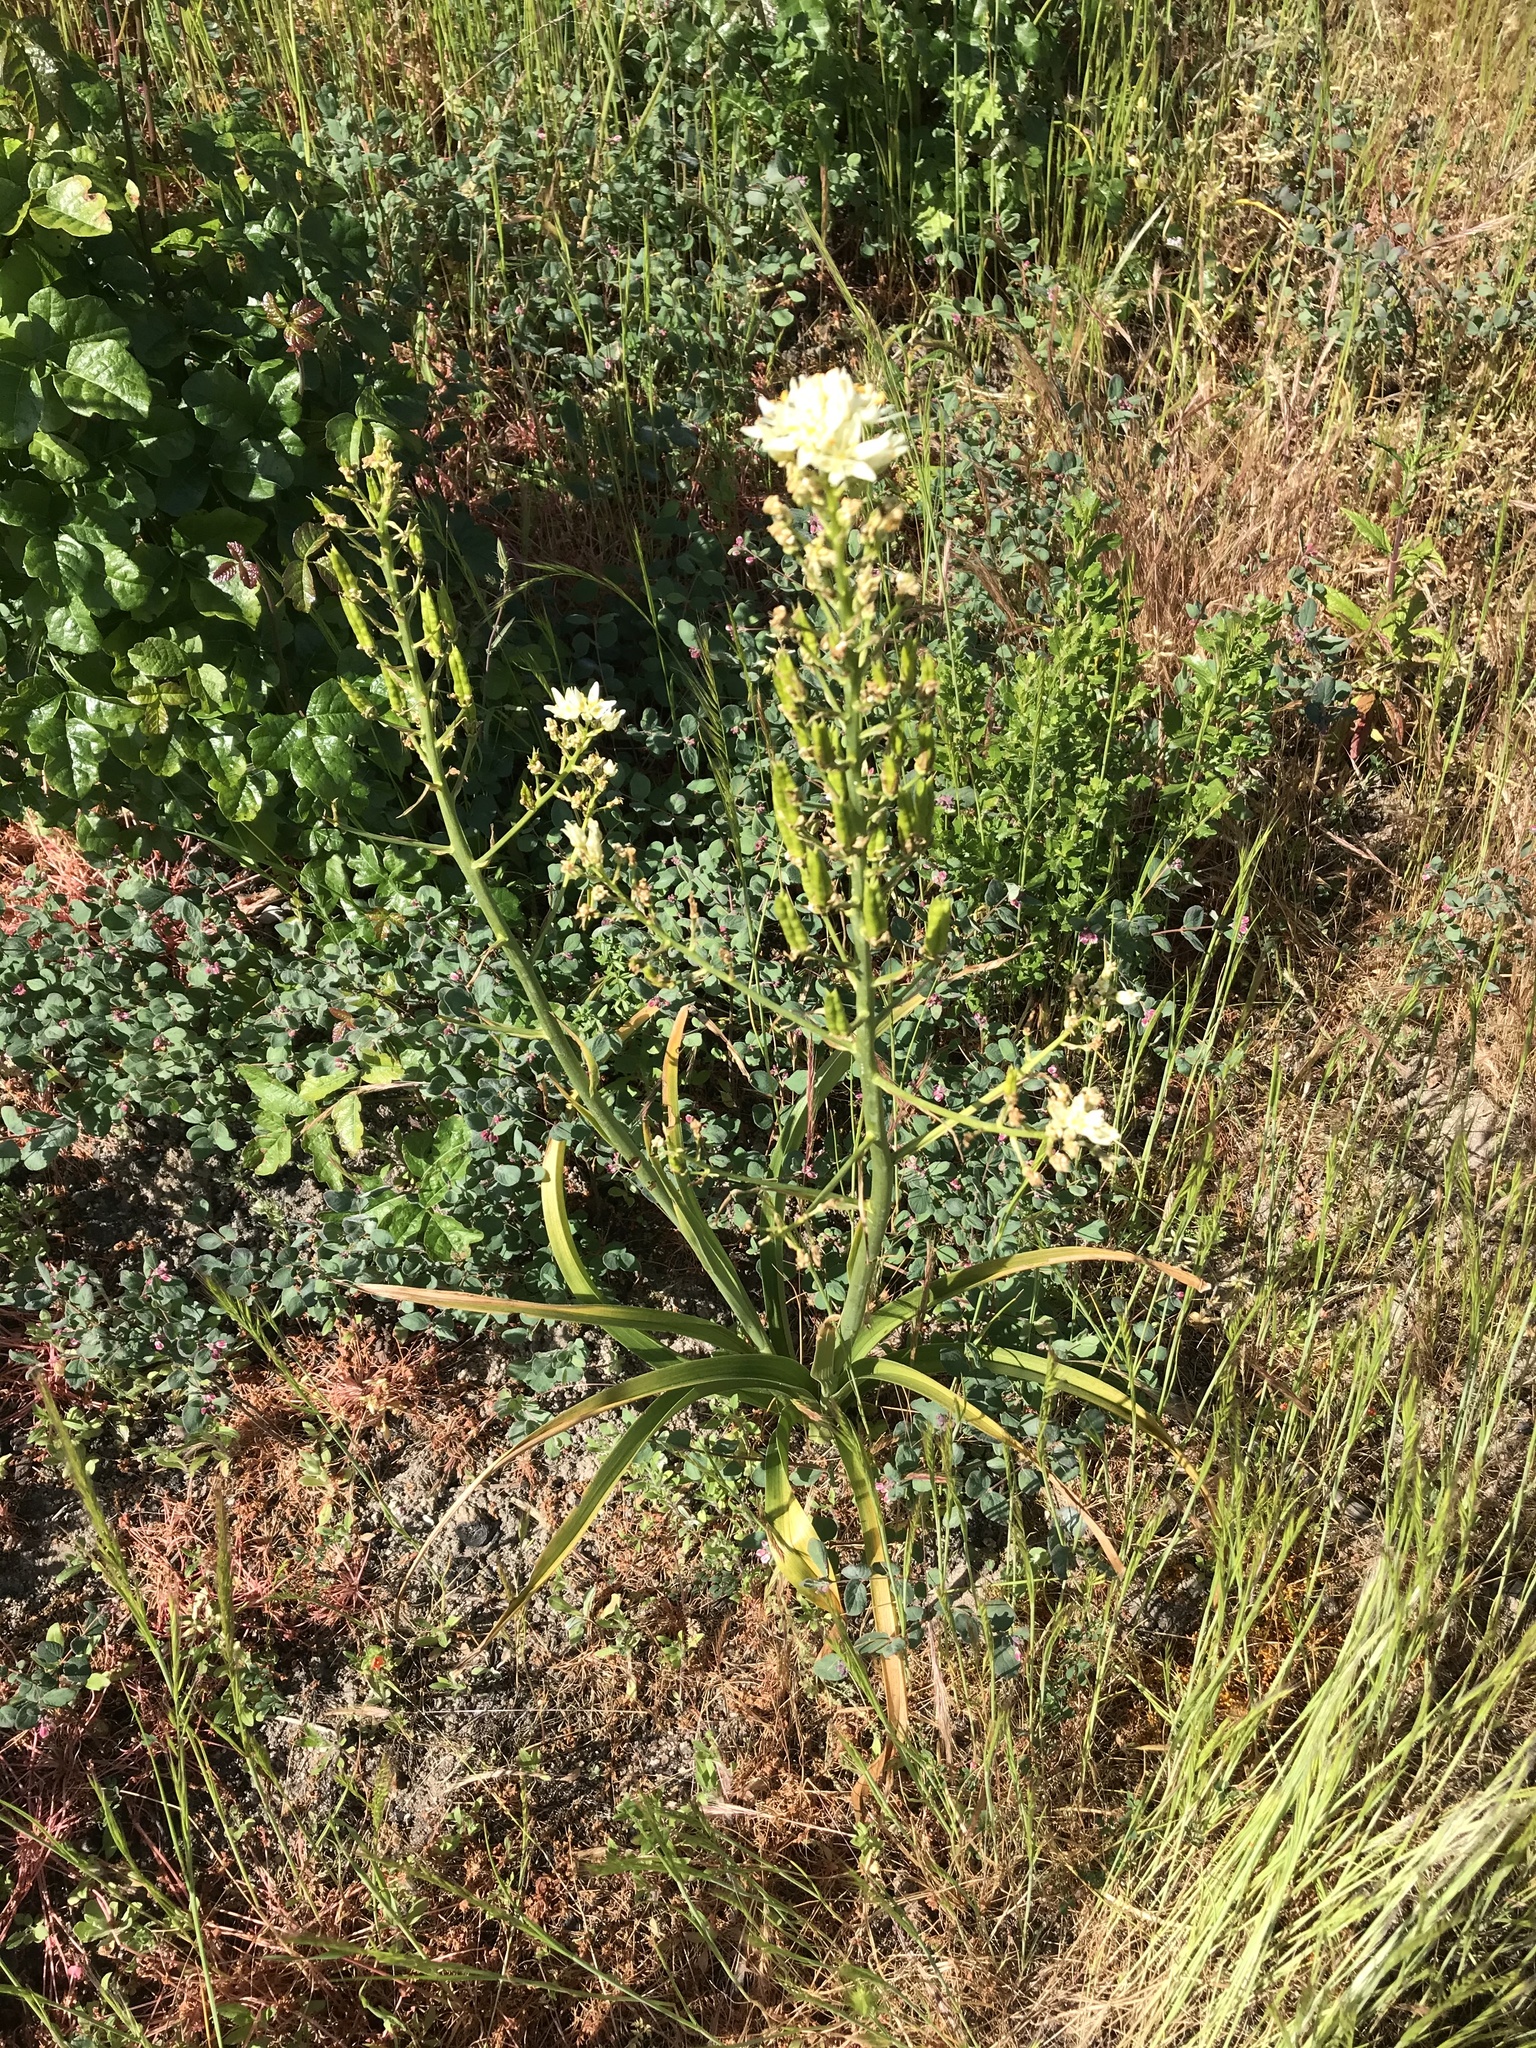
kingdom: Plantae
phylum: Tracheophyta
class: Liliopsida
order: Liliales
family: Melanthiaceae
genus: Toxicoscordion
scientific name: Toxicoscordion fremontii
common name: Fremont's death camas
